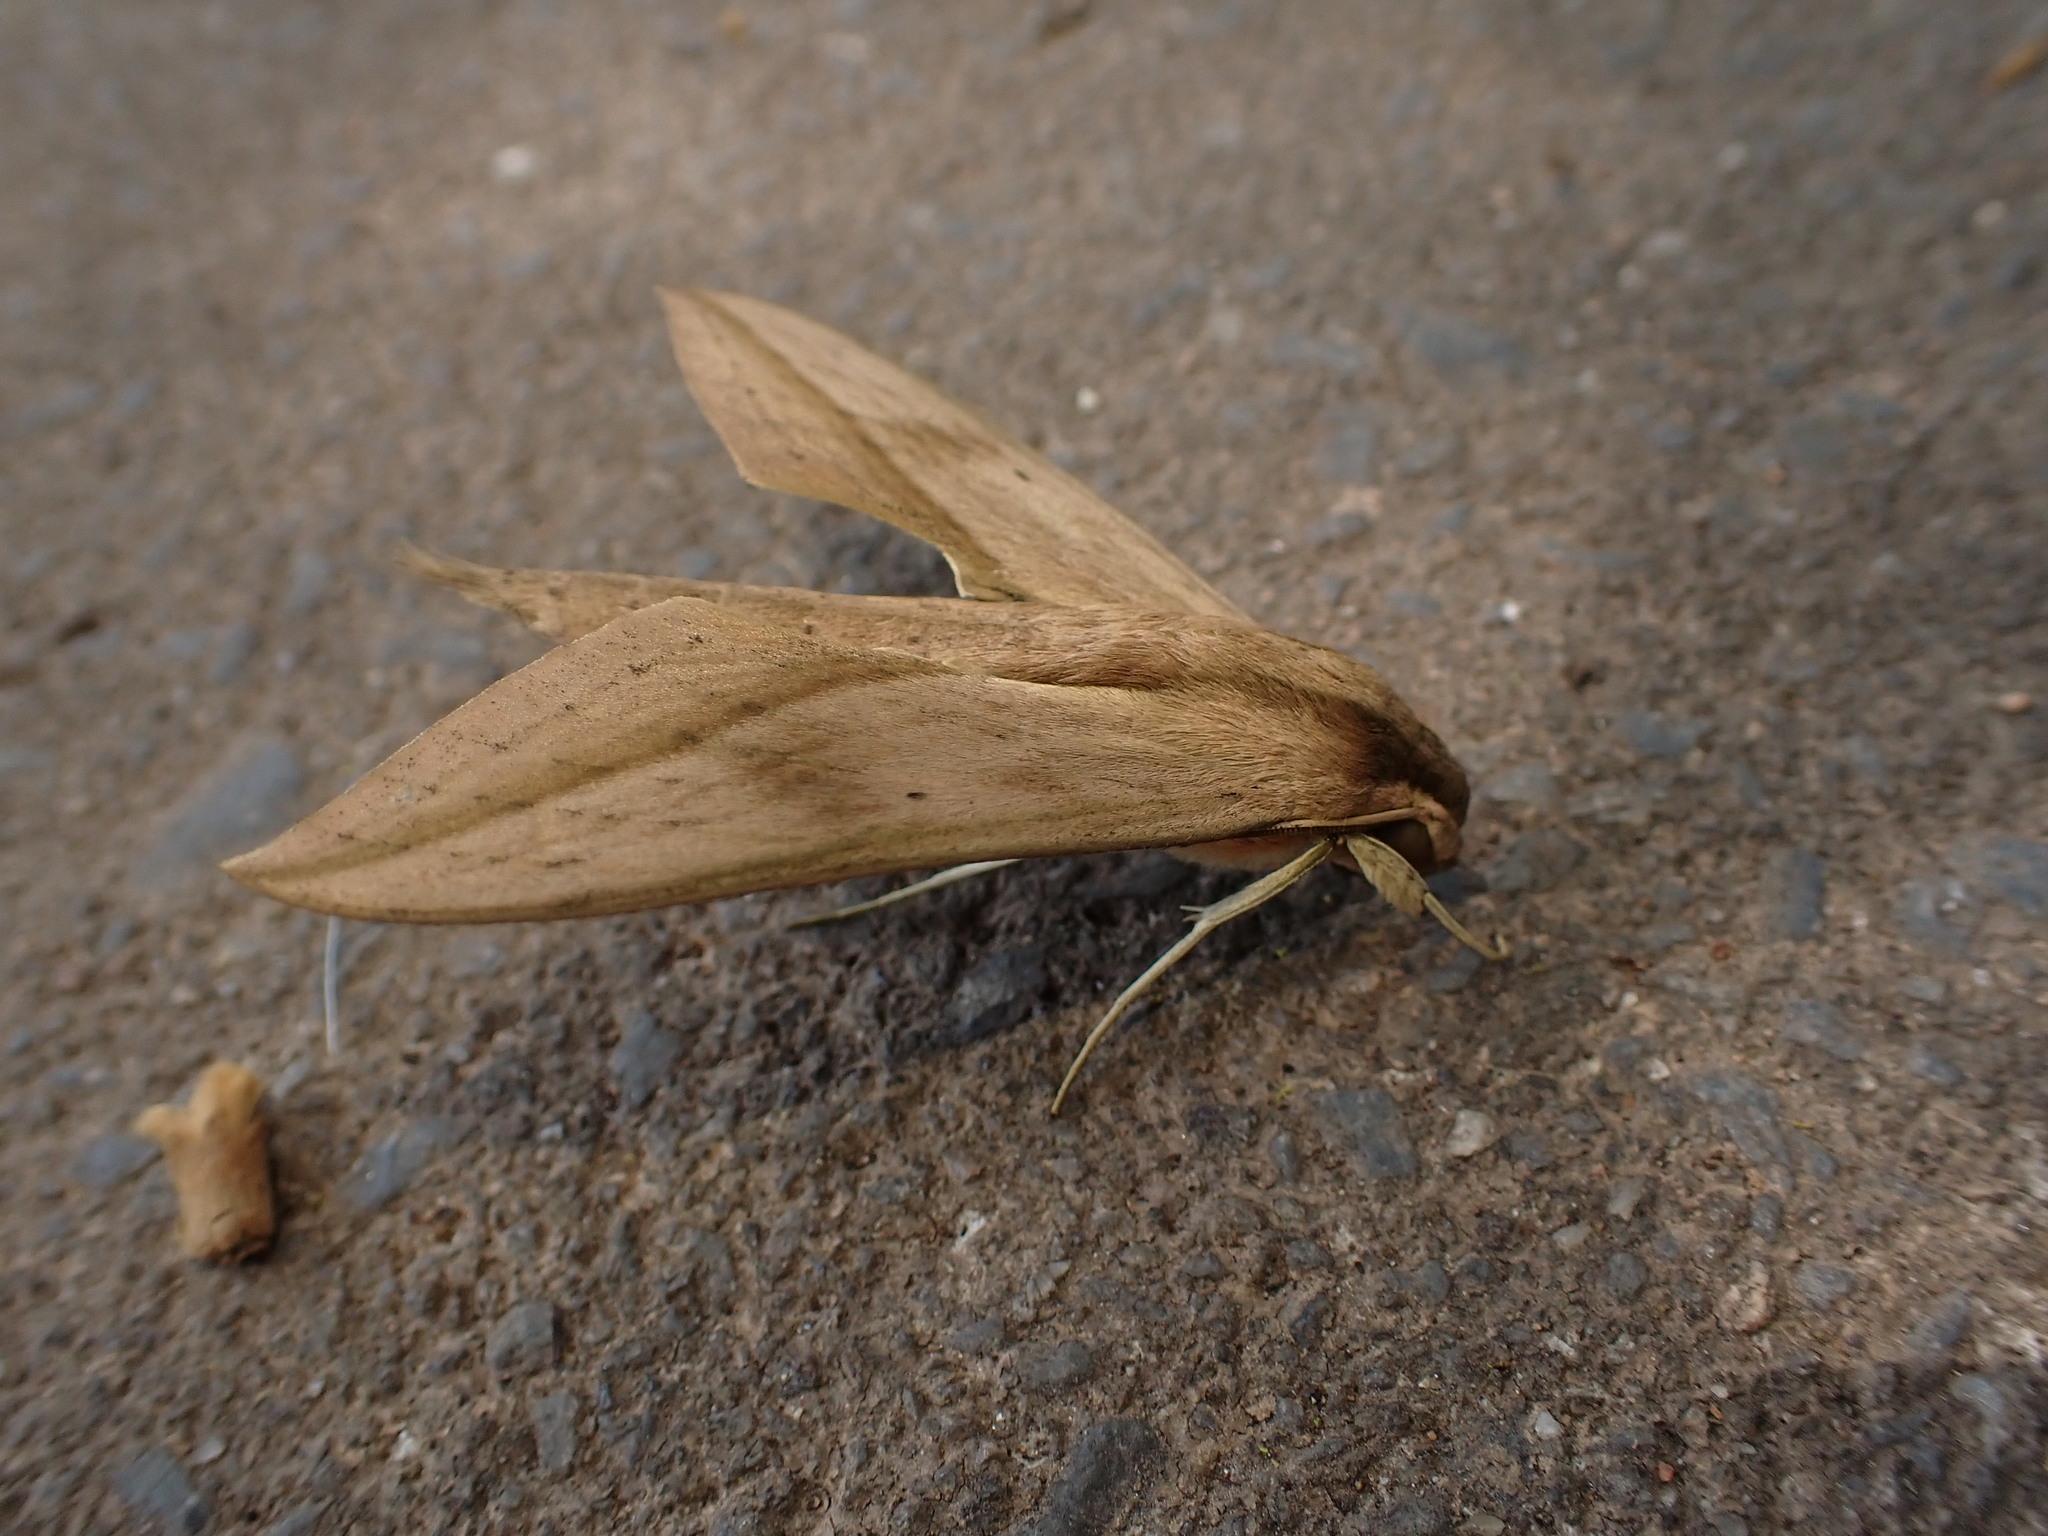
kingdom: Animalia
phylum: Arthropoda
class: Insecta
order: Lepidoptera
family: Sphingidae
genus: Xylophanes
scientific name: Xylophanes anubus
